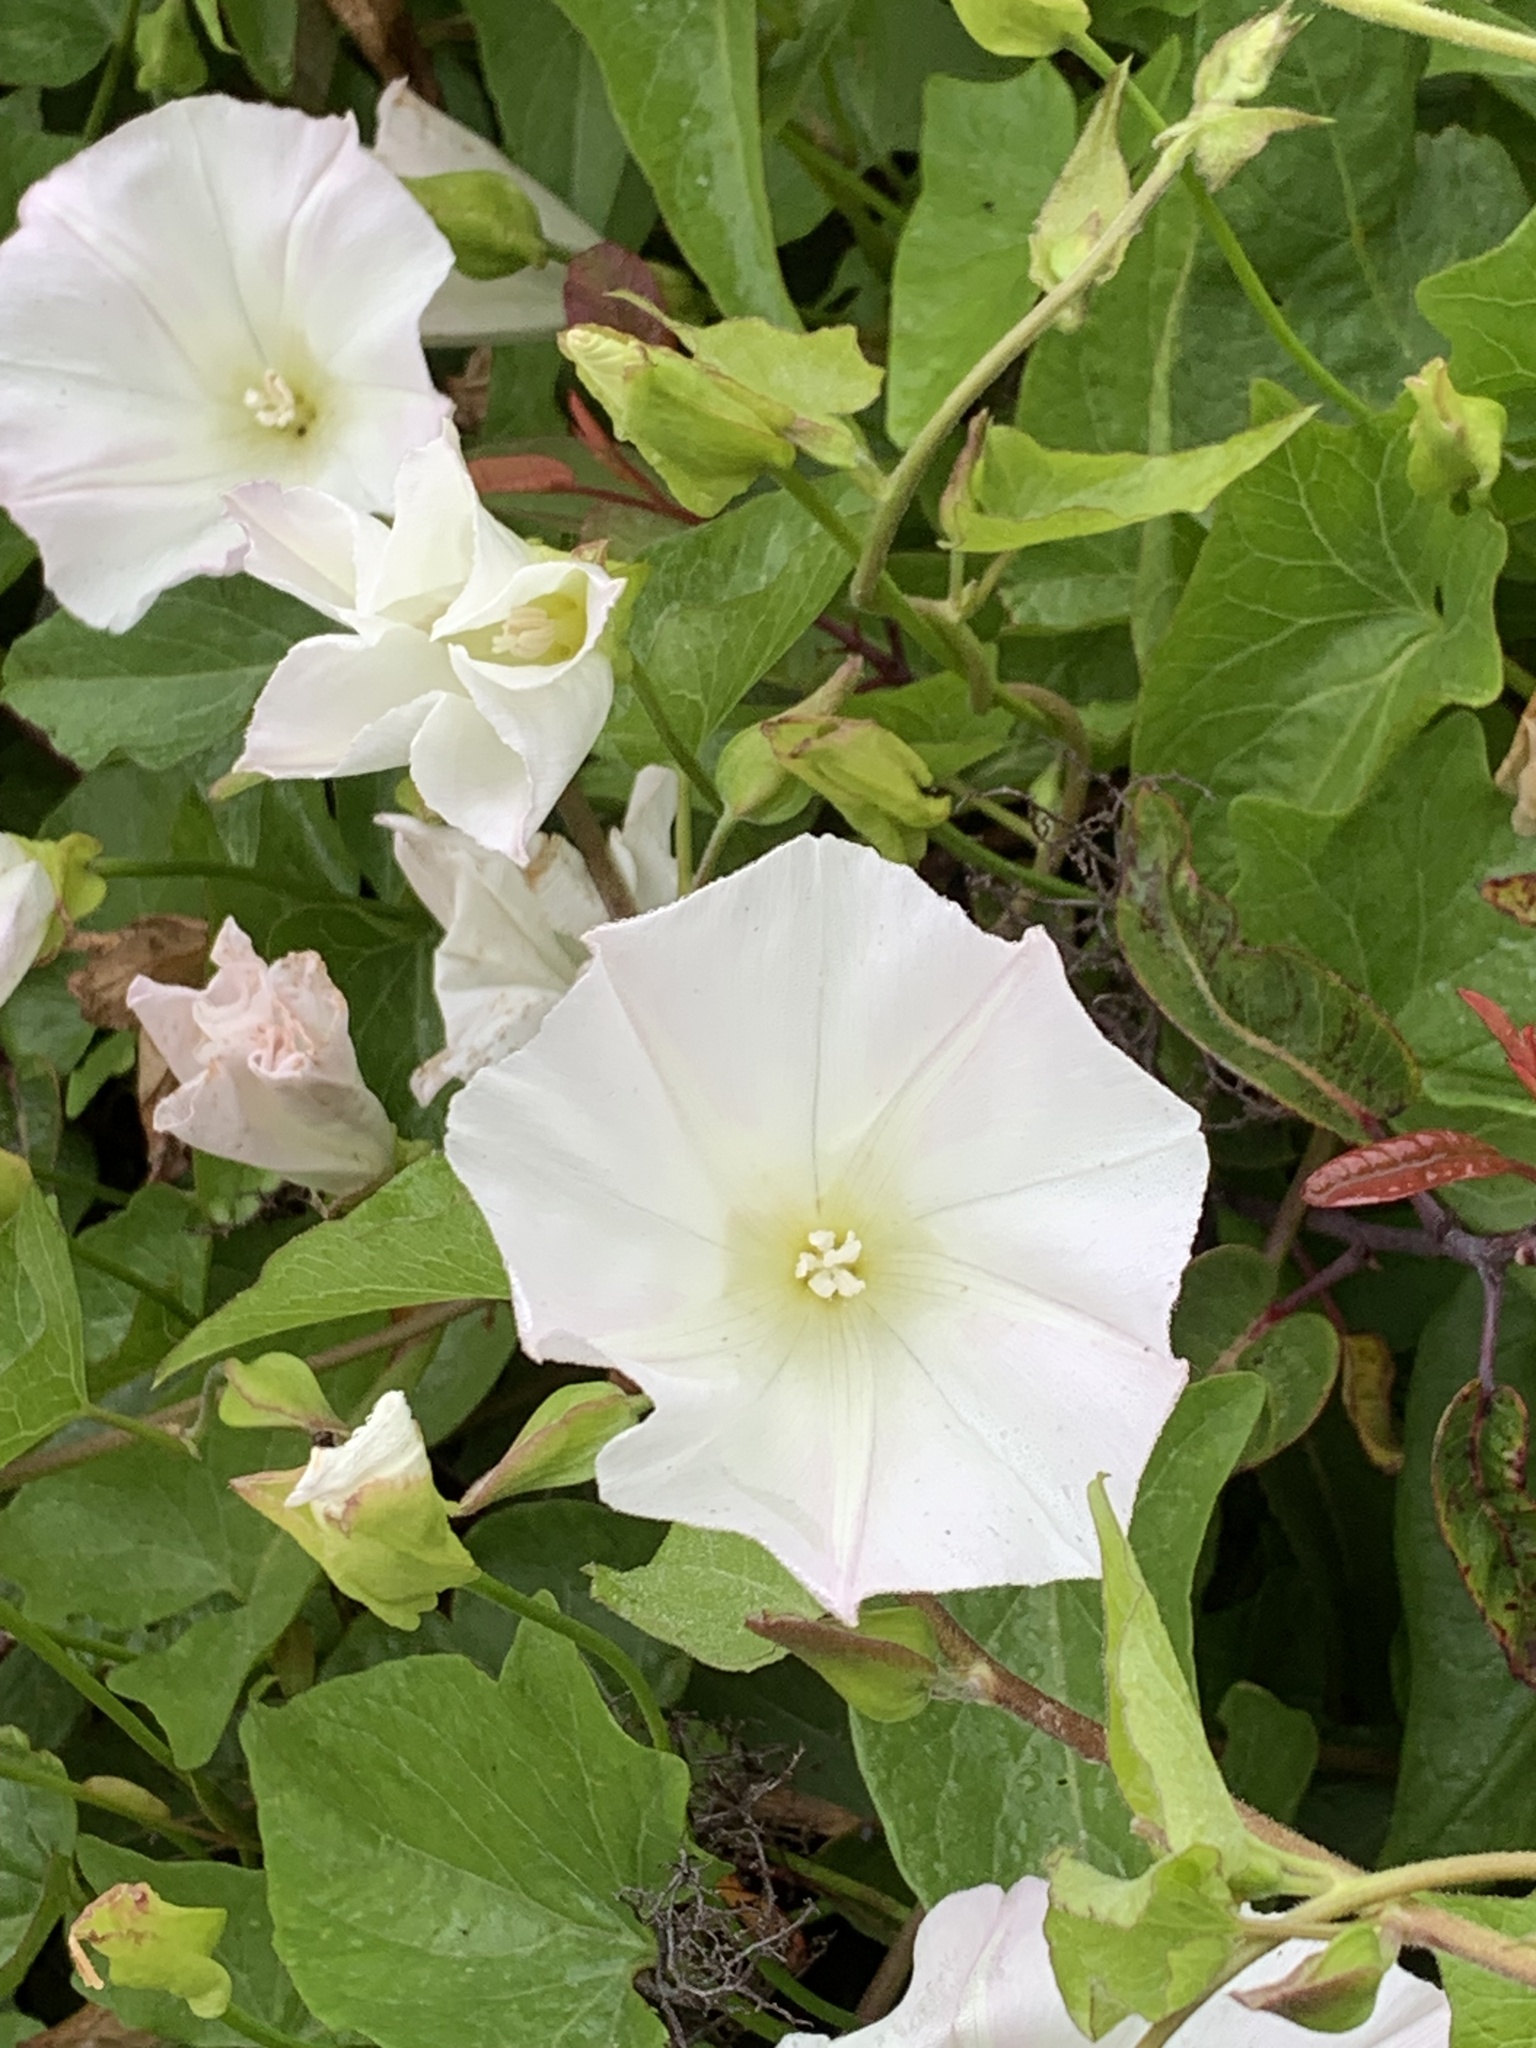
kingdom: Plantae
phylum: Tracheophyta
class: Magnoliopsida
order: Solanales
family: Convolvulaceae
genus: Calystegia
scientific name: Calystegia macrostegia
